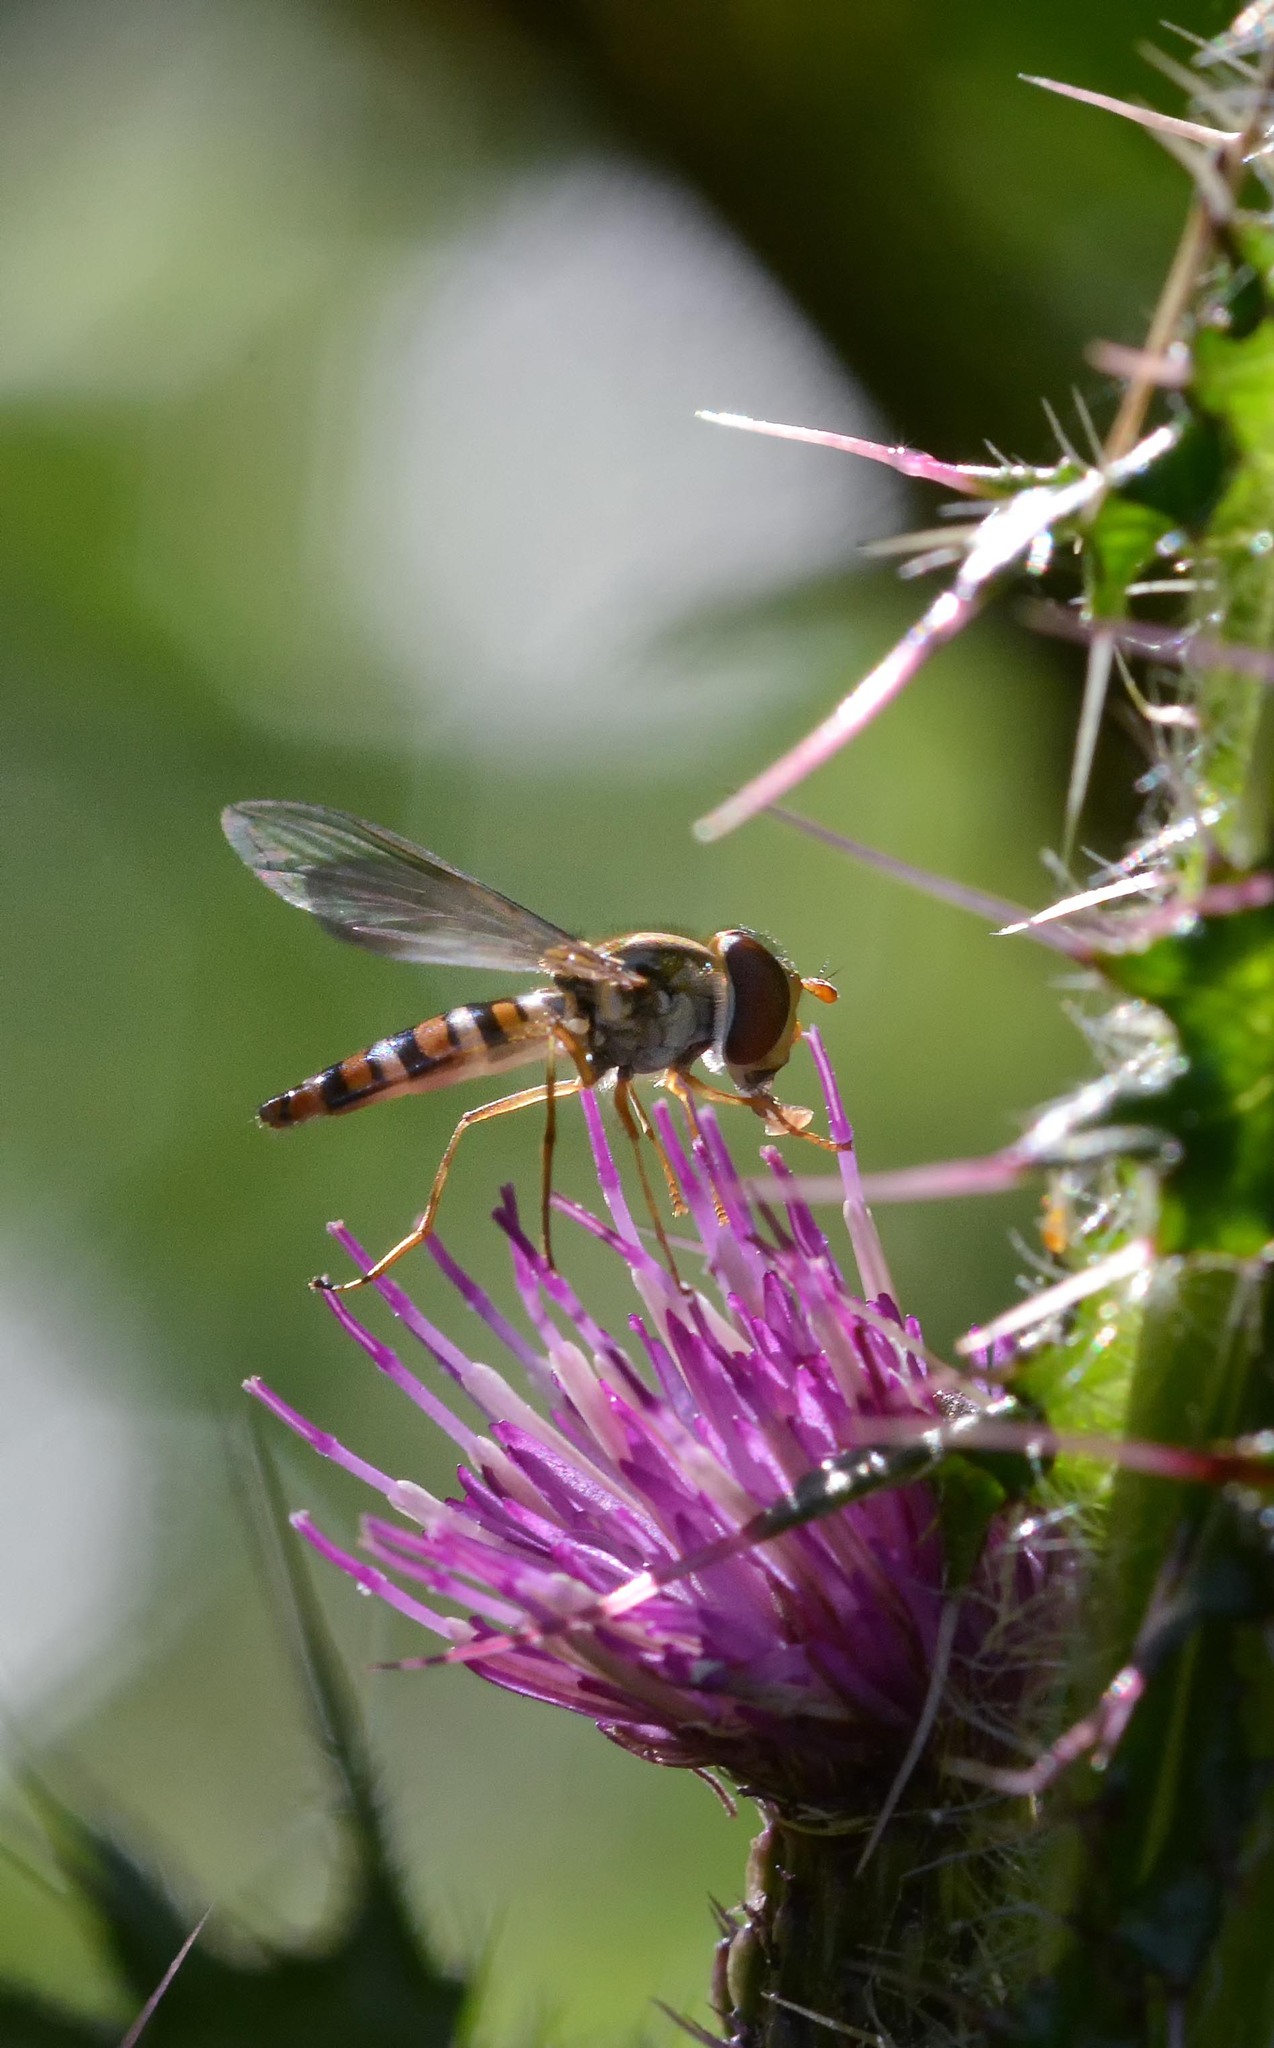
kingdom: Animalia
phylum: Arthropoda
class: Insecta
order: Diptera
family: Syrphidae
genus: Episyrphus
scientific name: Episyrphus balteatus
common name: Marmalade hoverfly
